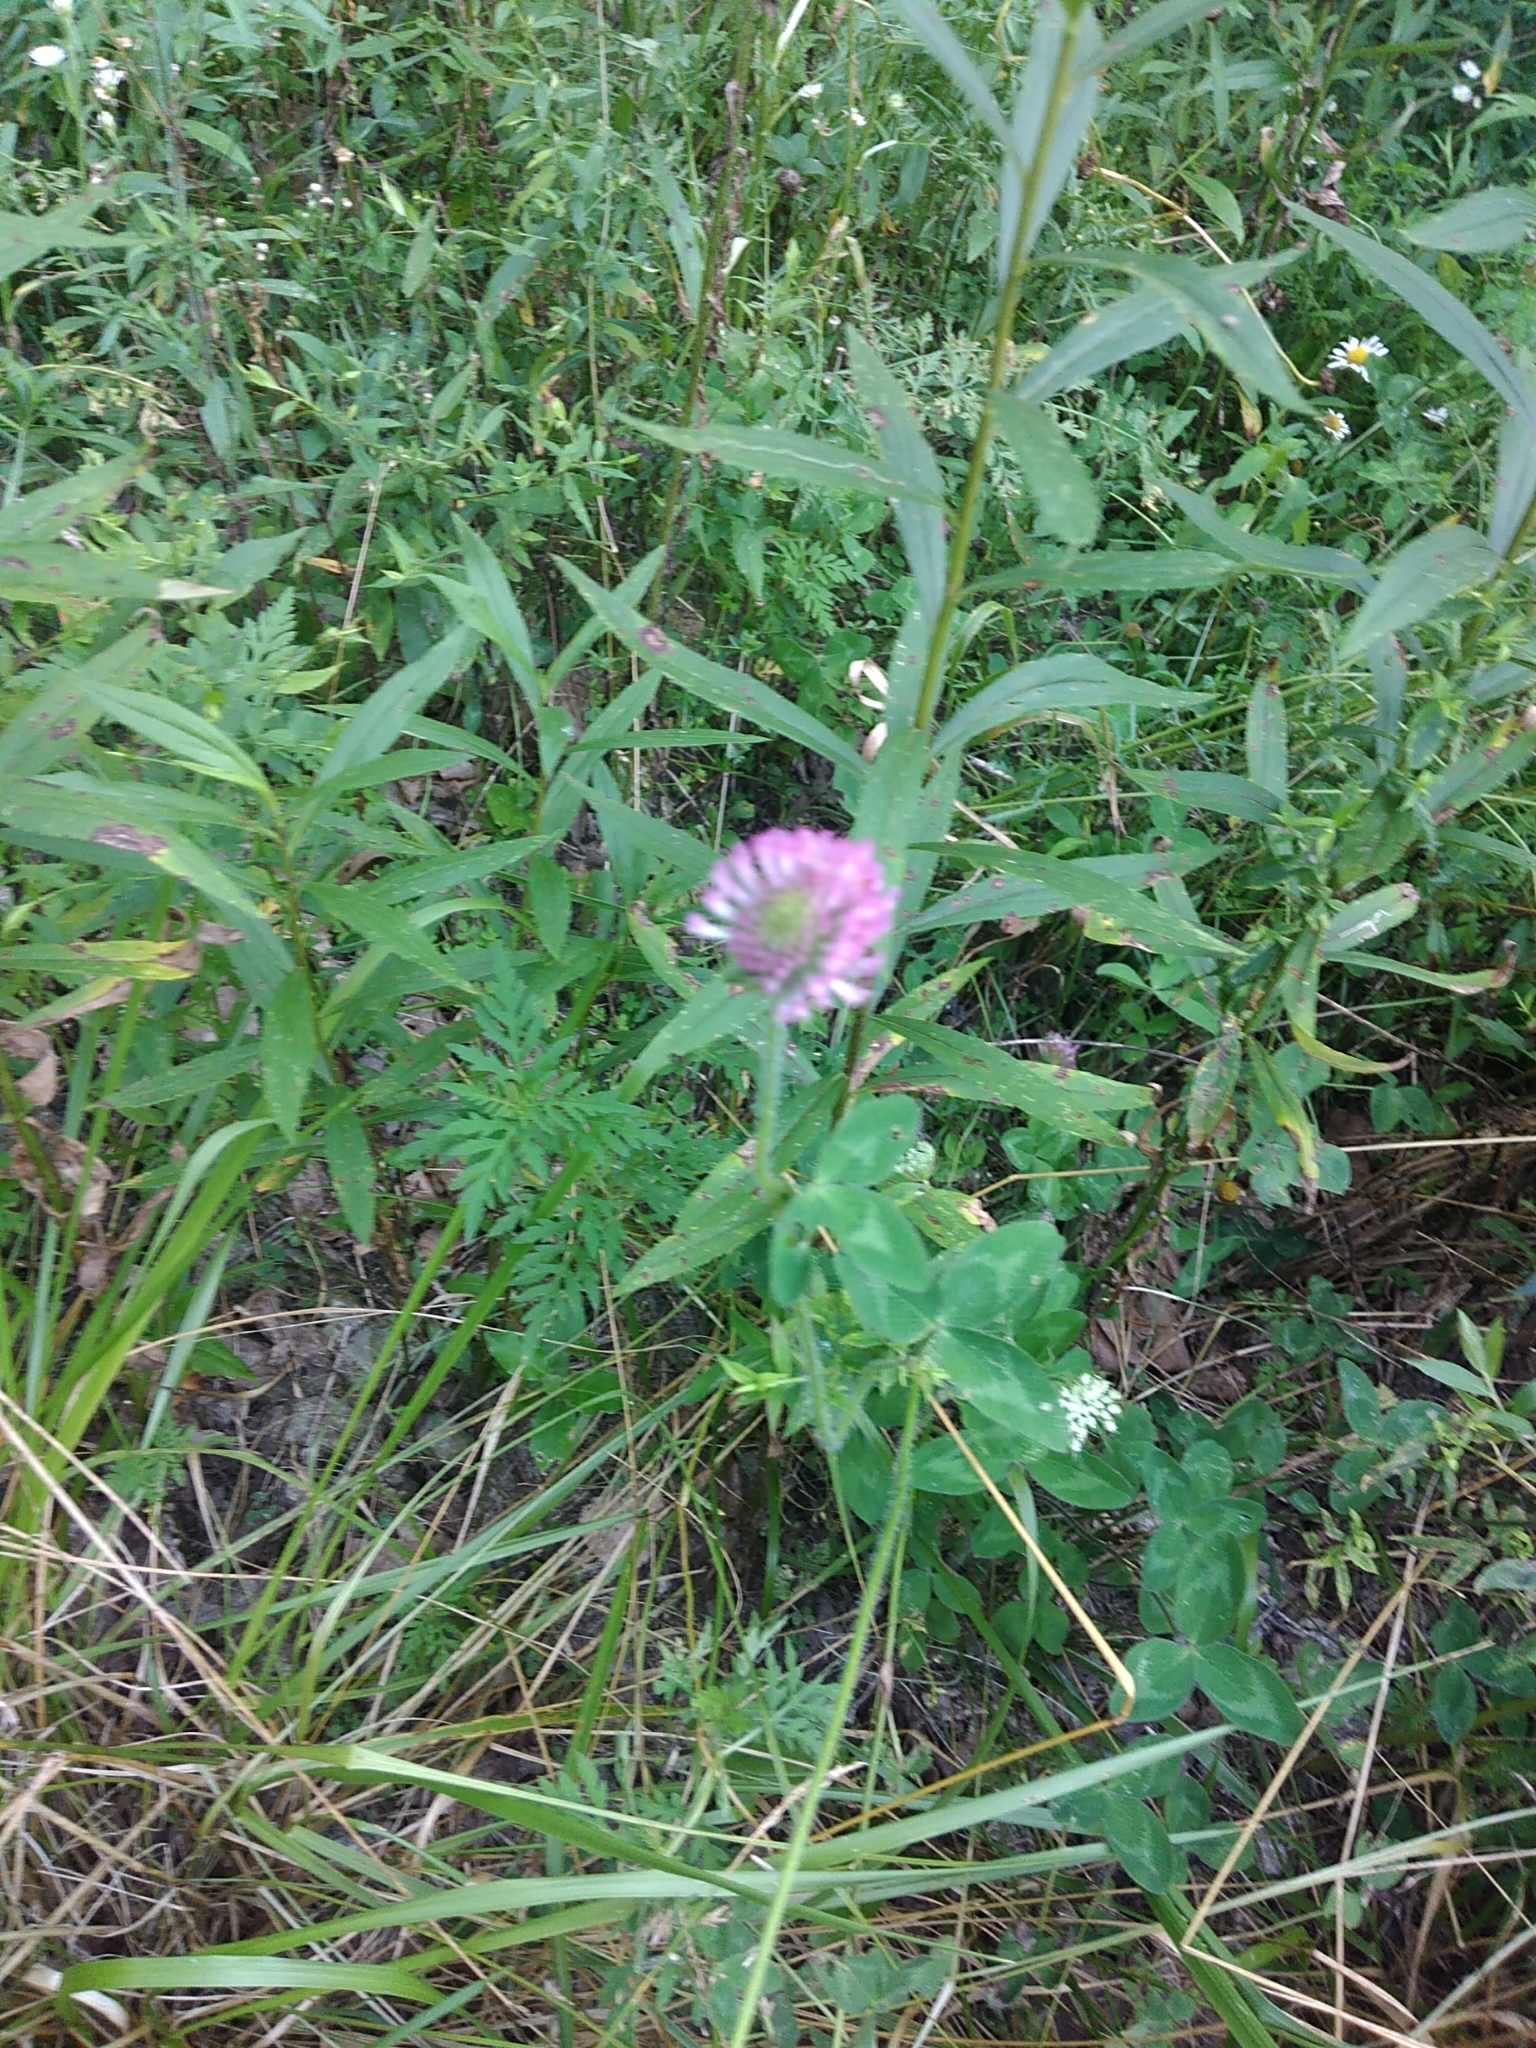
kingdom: Plantae
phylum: Tracheophyta
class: Magnoliopsida
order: Fabales
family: Fabaceae
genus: Trifolium
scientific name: Trifolium pratense
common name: Red clover
